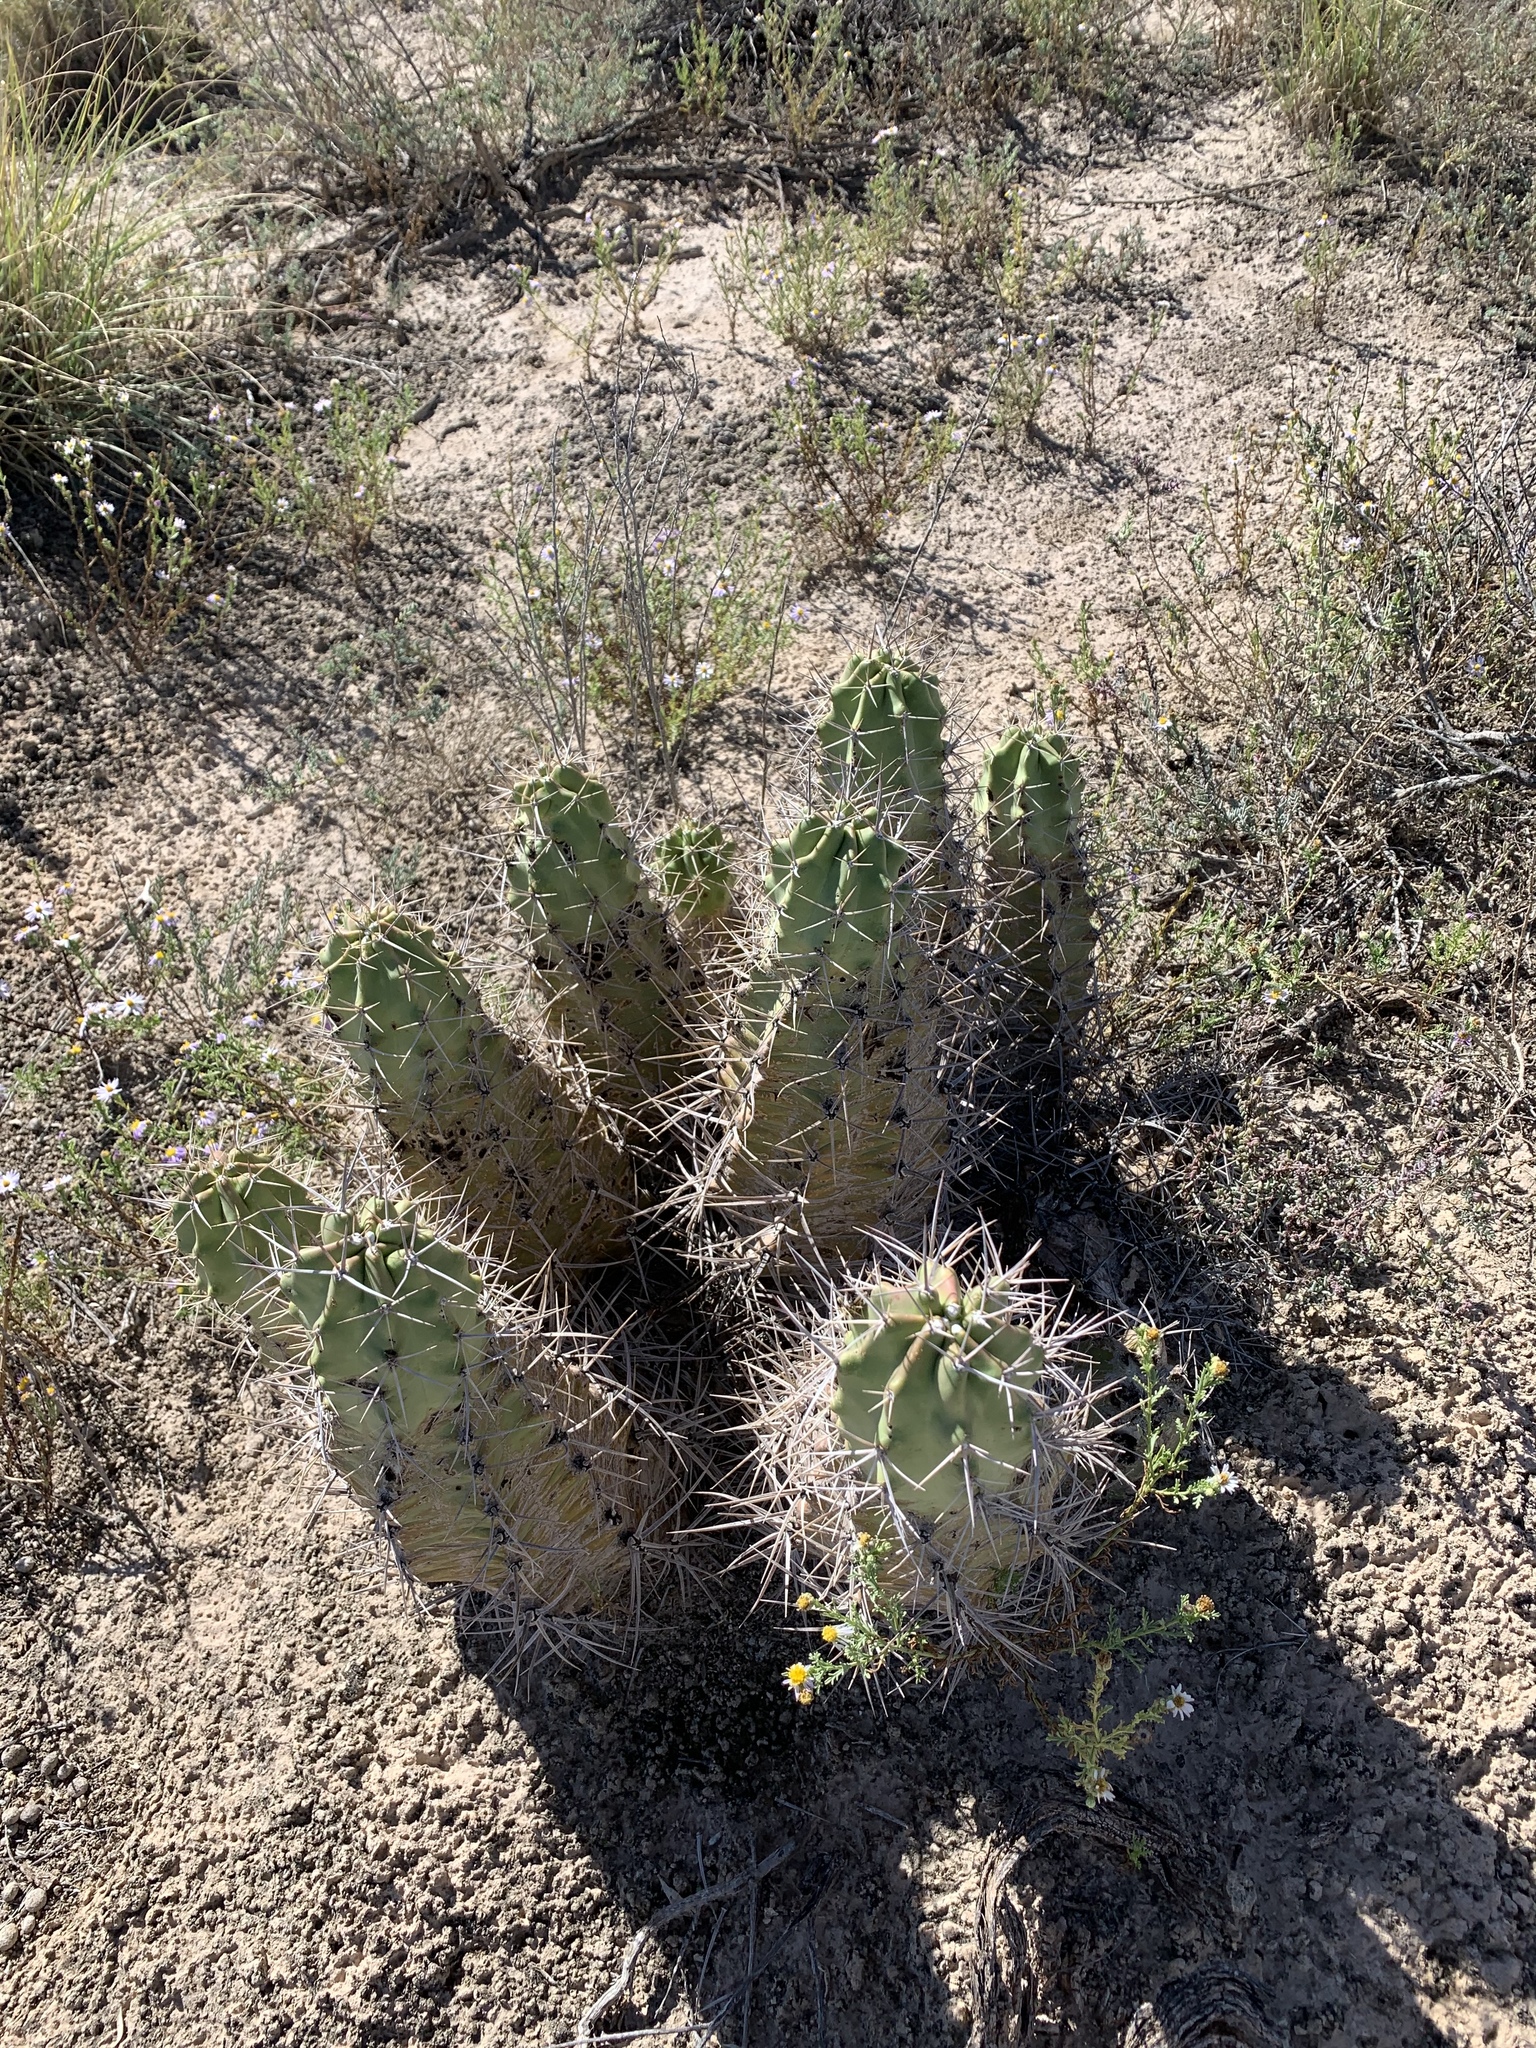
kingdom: Plantae
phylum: Tracheophyta
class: Magnoliopsida
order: Caryophyllales
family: Cactaceae
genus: Echinocereus
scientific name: Echinocereus triglochidiatus
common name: Claretcup hedgehog
